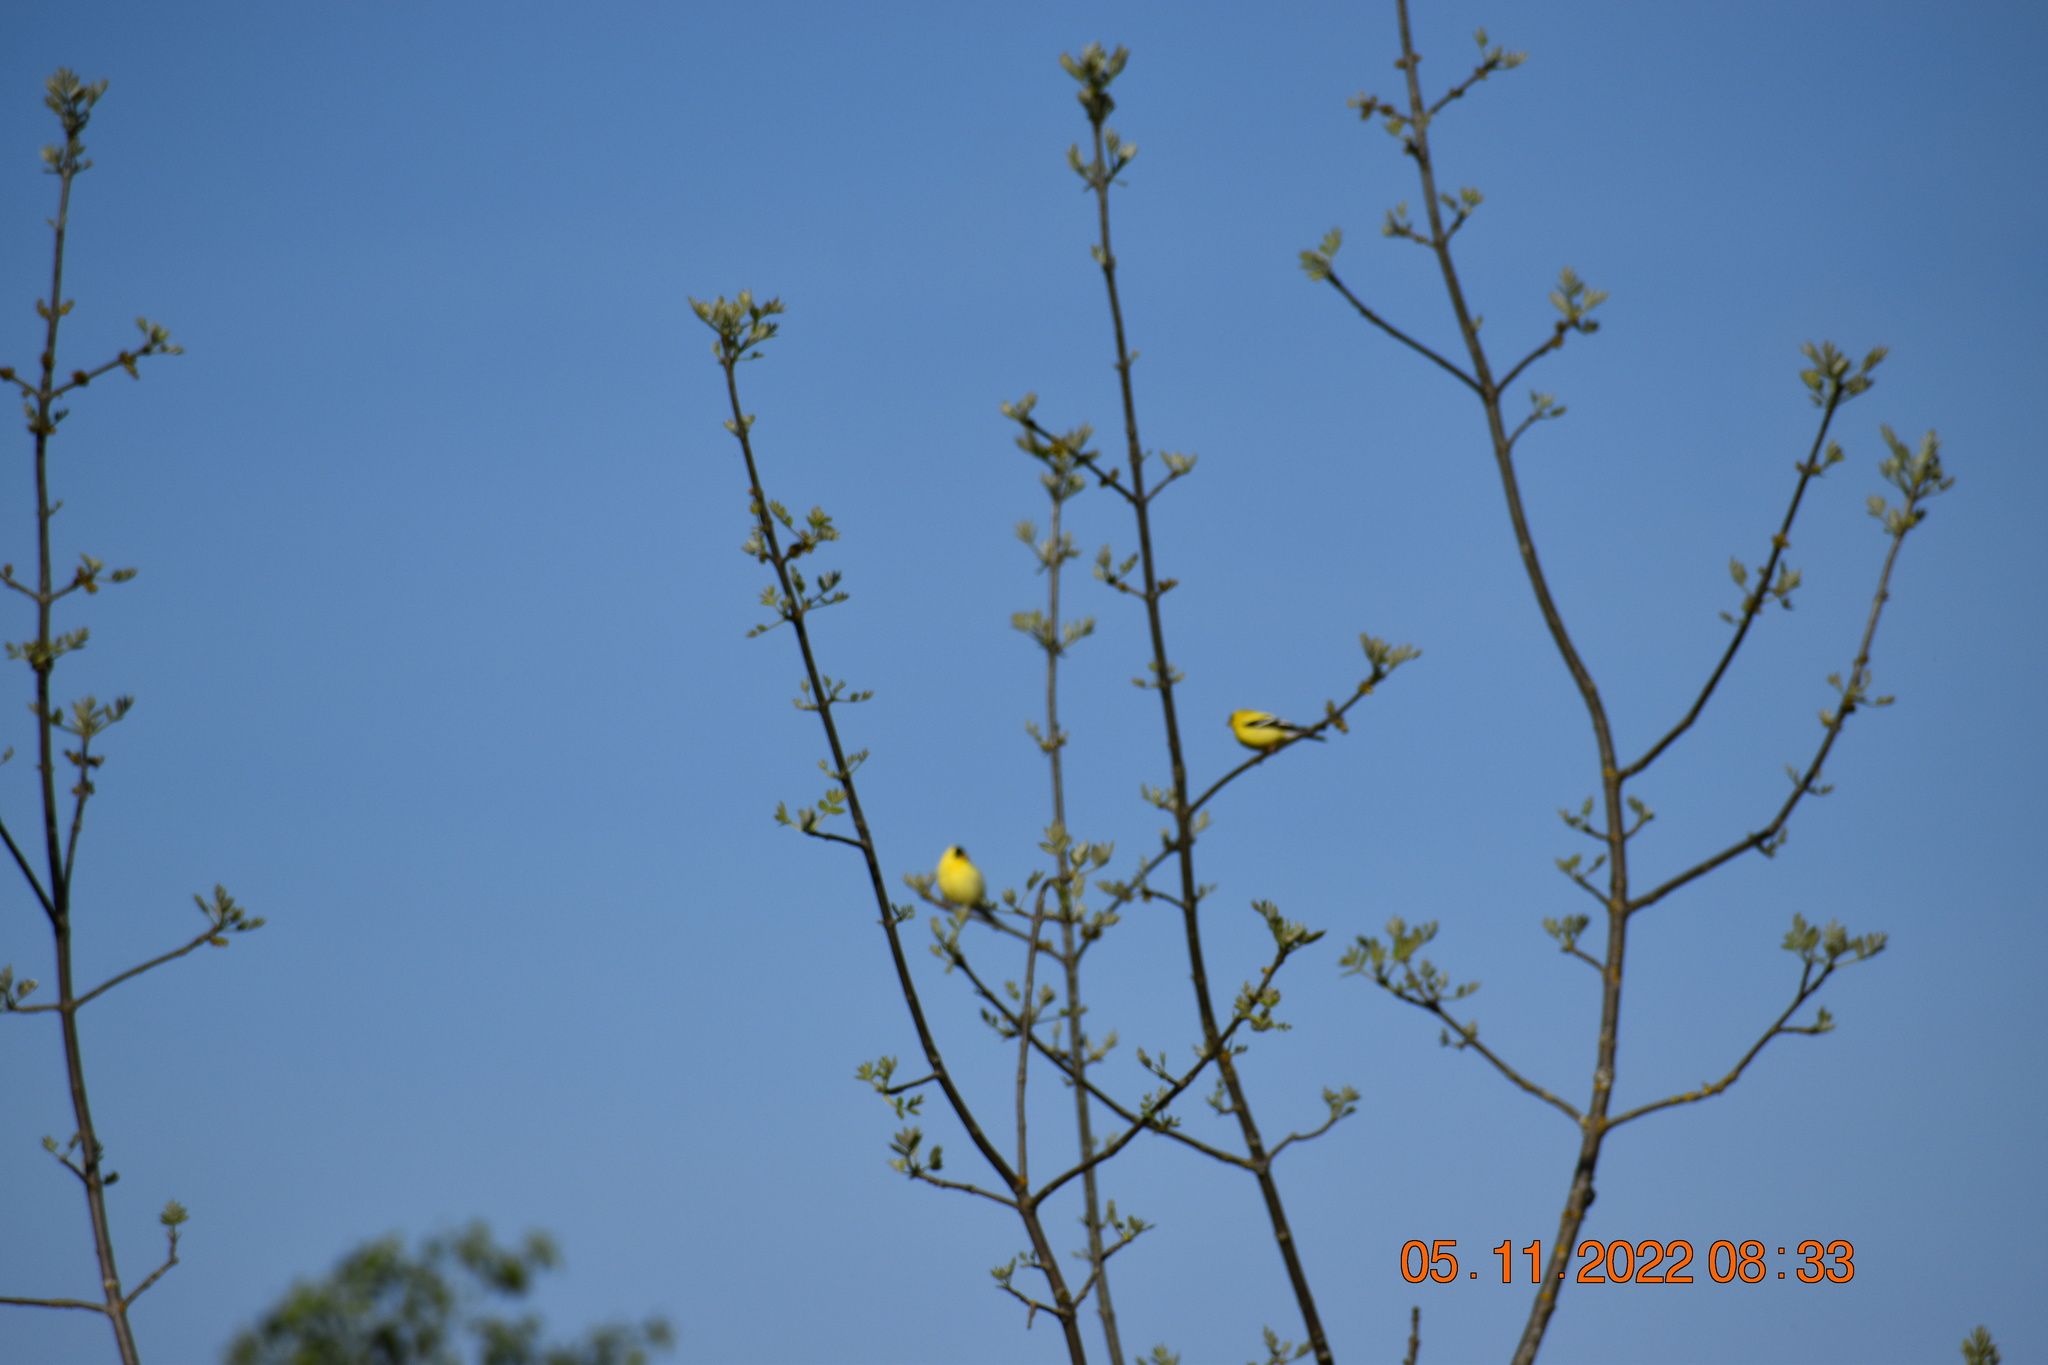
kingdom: Animalia
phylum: Chordata
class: Aves
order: Passeriformes
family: Fringillidae
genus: Spinus
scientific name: Spinus tristis
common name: American goldfinch
